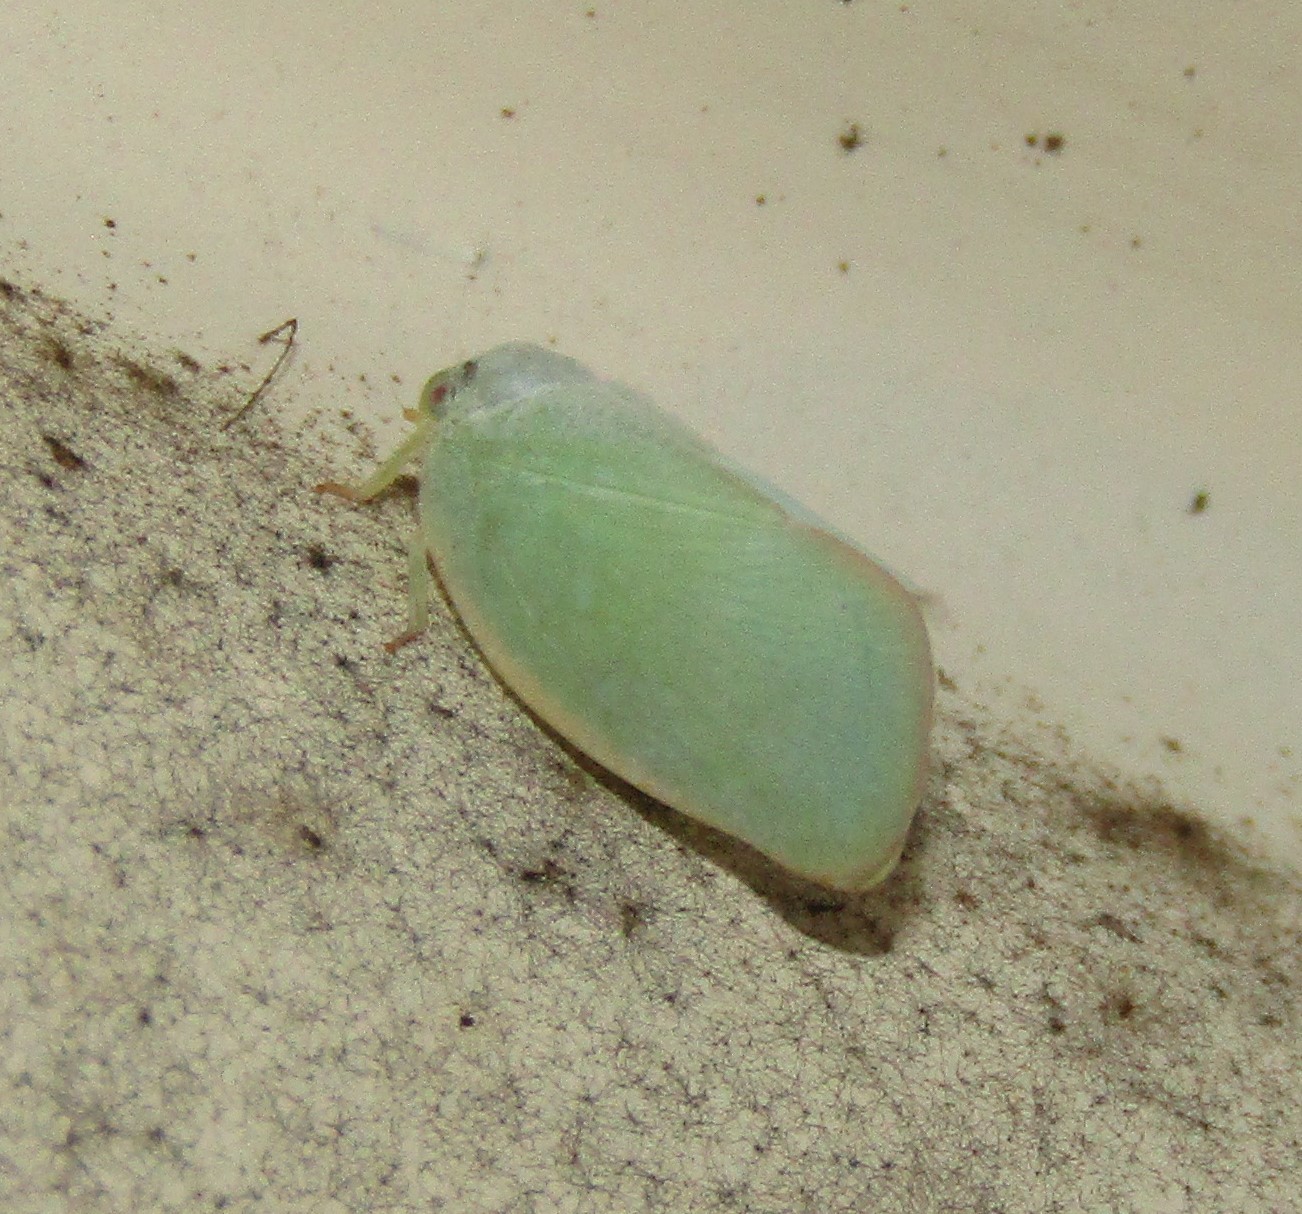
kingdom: Animalia
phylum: Arthropoda
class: Insecta
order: Hemiptera
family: Flatidae
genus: Ormenoides
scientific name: Ormenoides venusta
